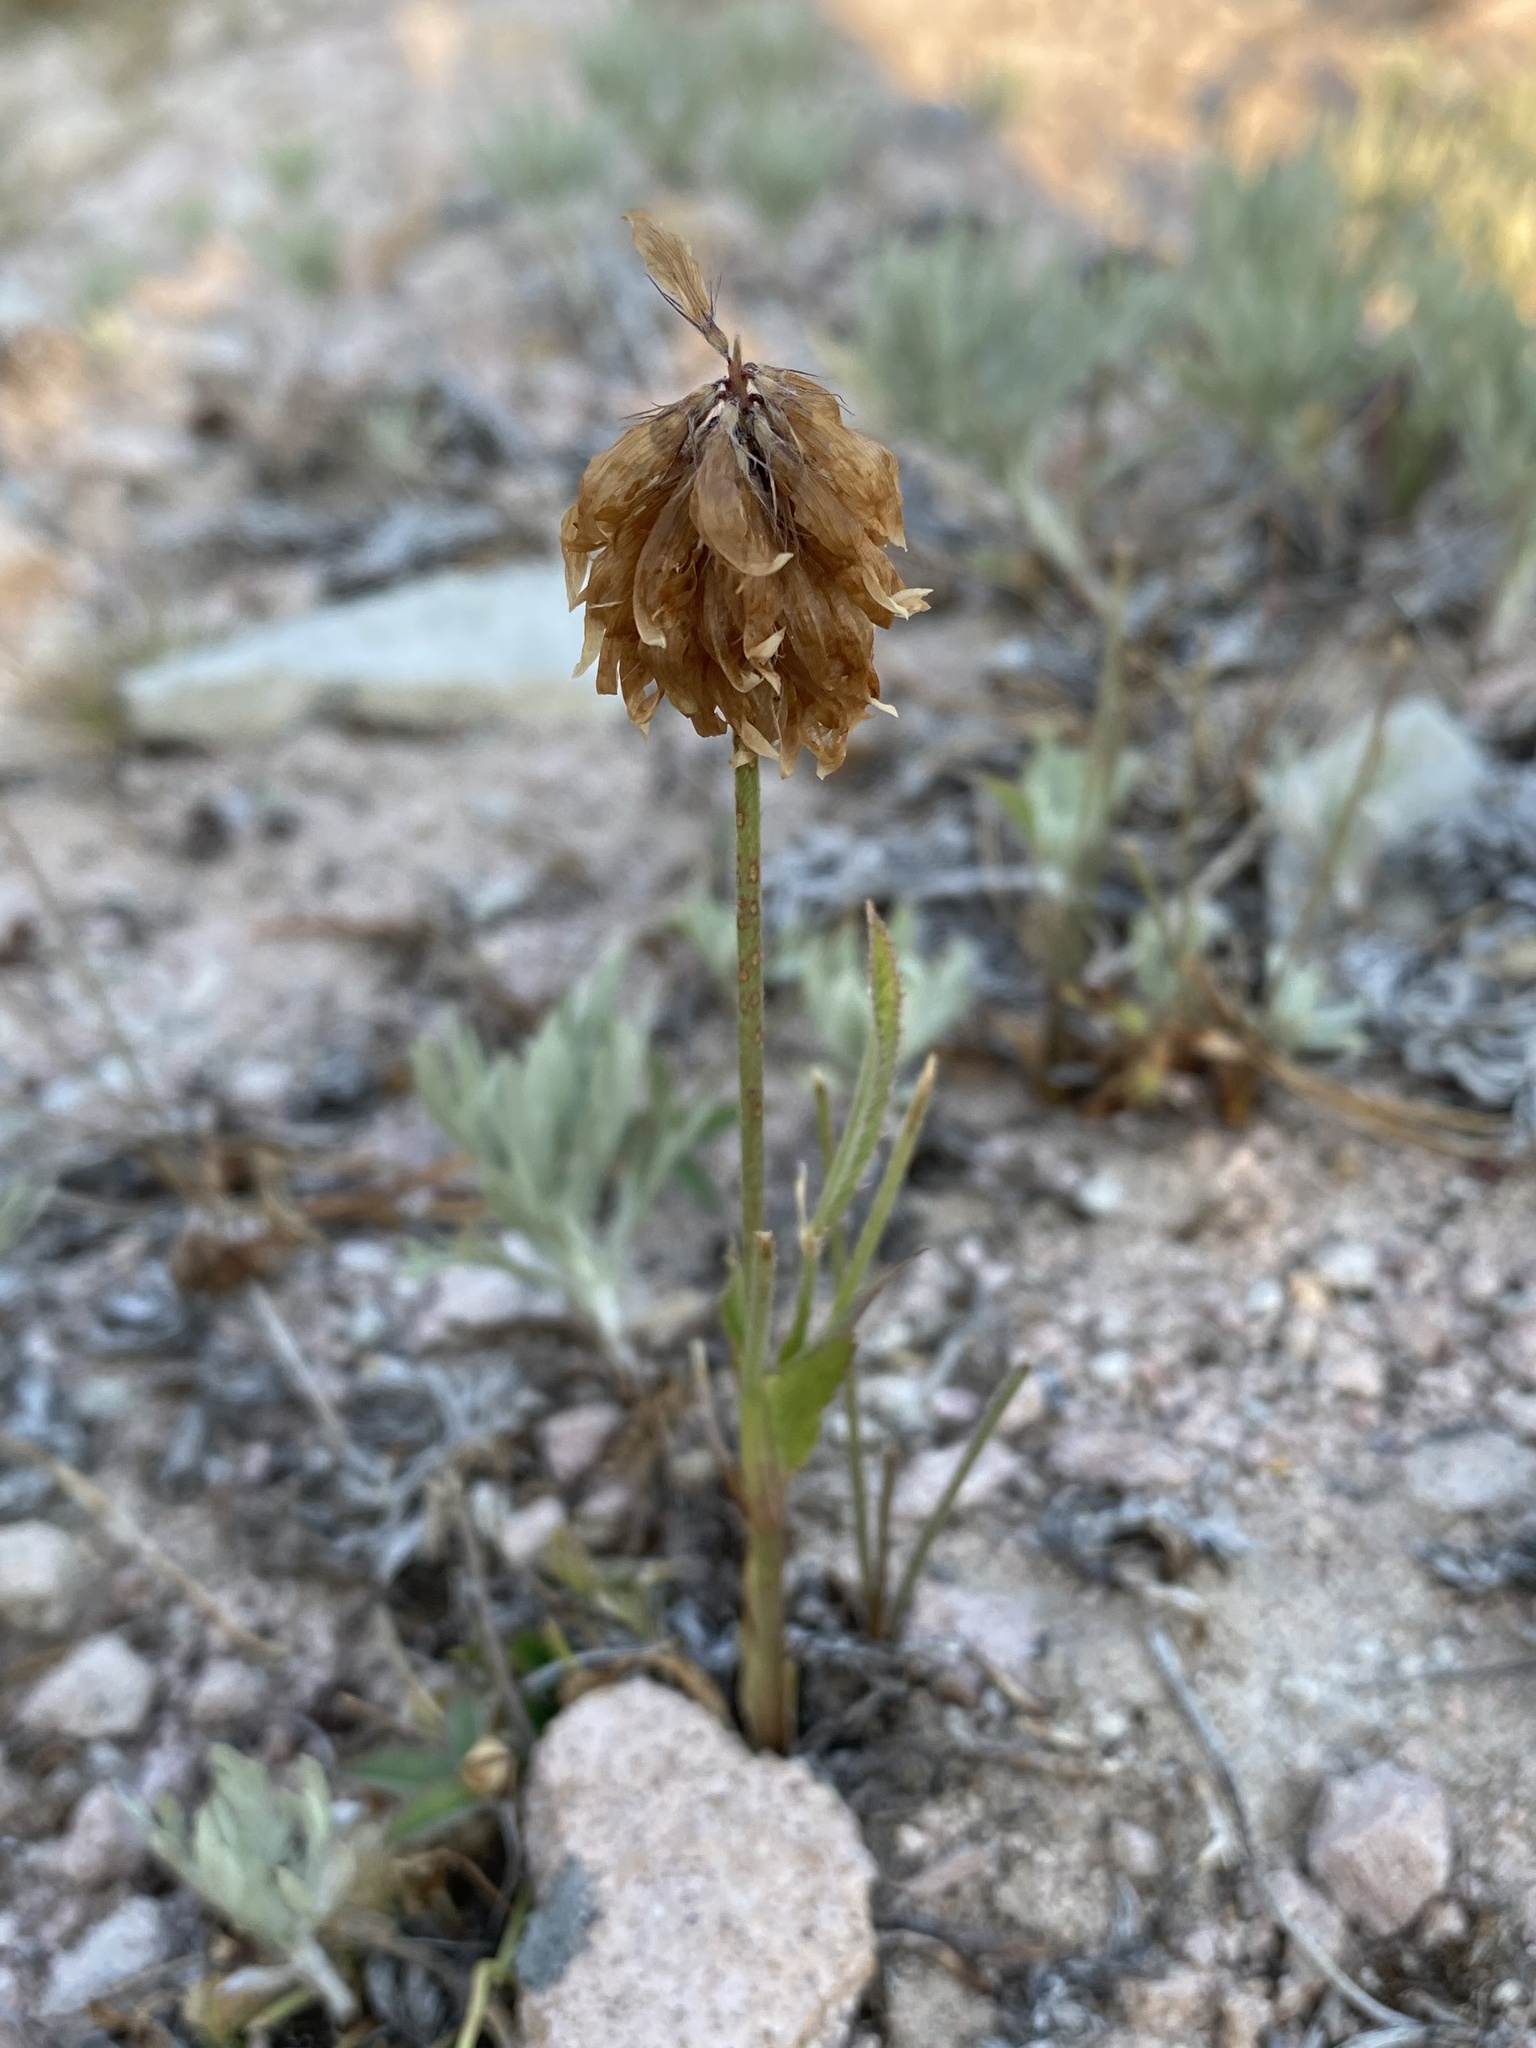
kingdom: Plantae
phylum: Tracheophyta
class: Magnoliopsida
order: Fabales
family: Fabaceae
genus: Trifolium
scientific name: Trifolium longipes
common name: Long-stalk clover
